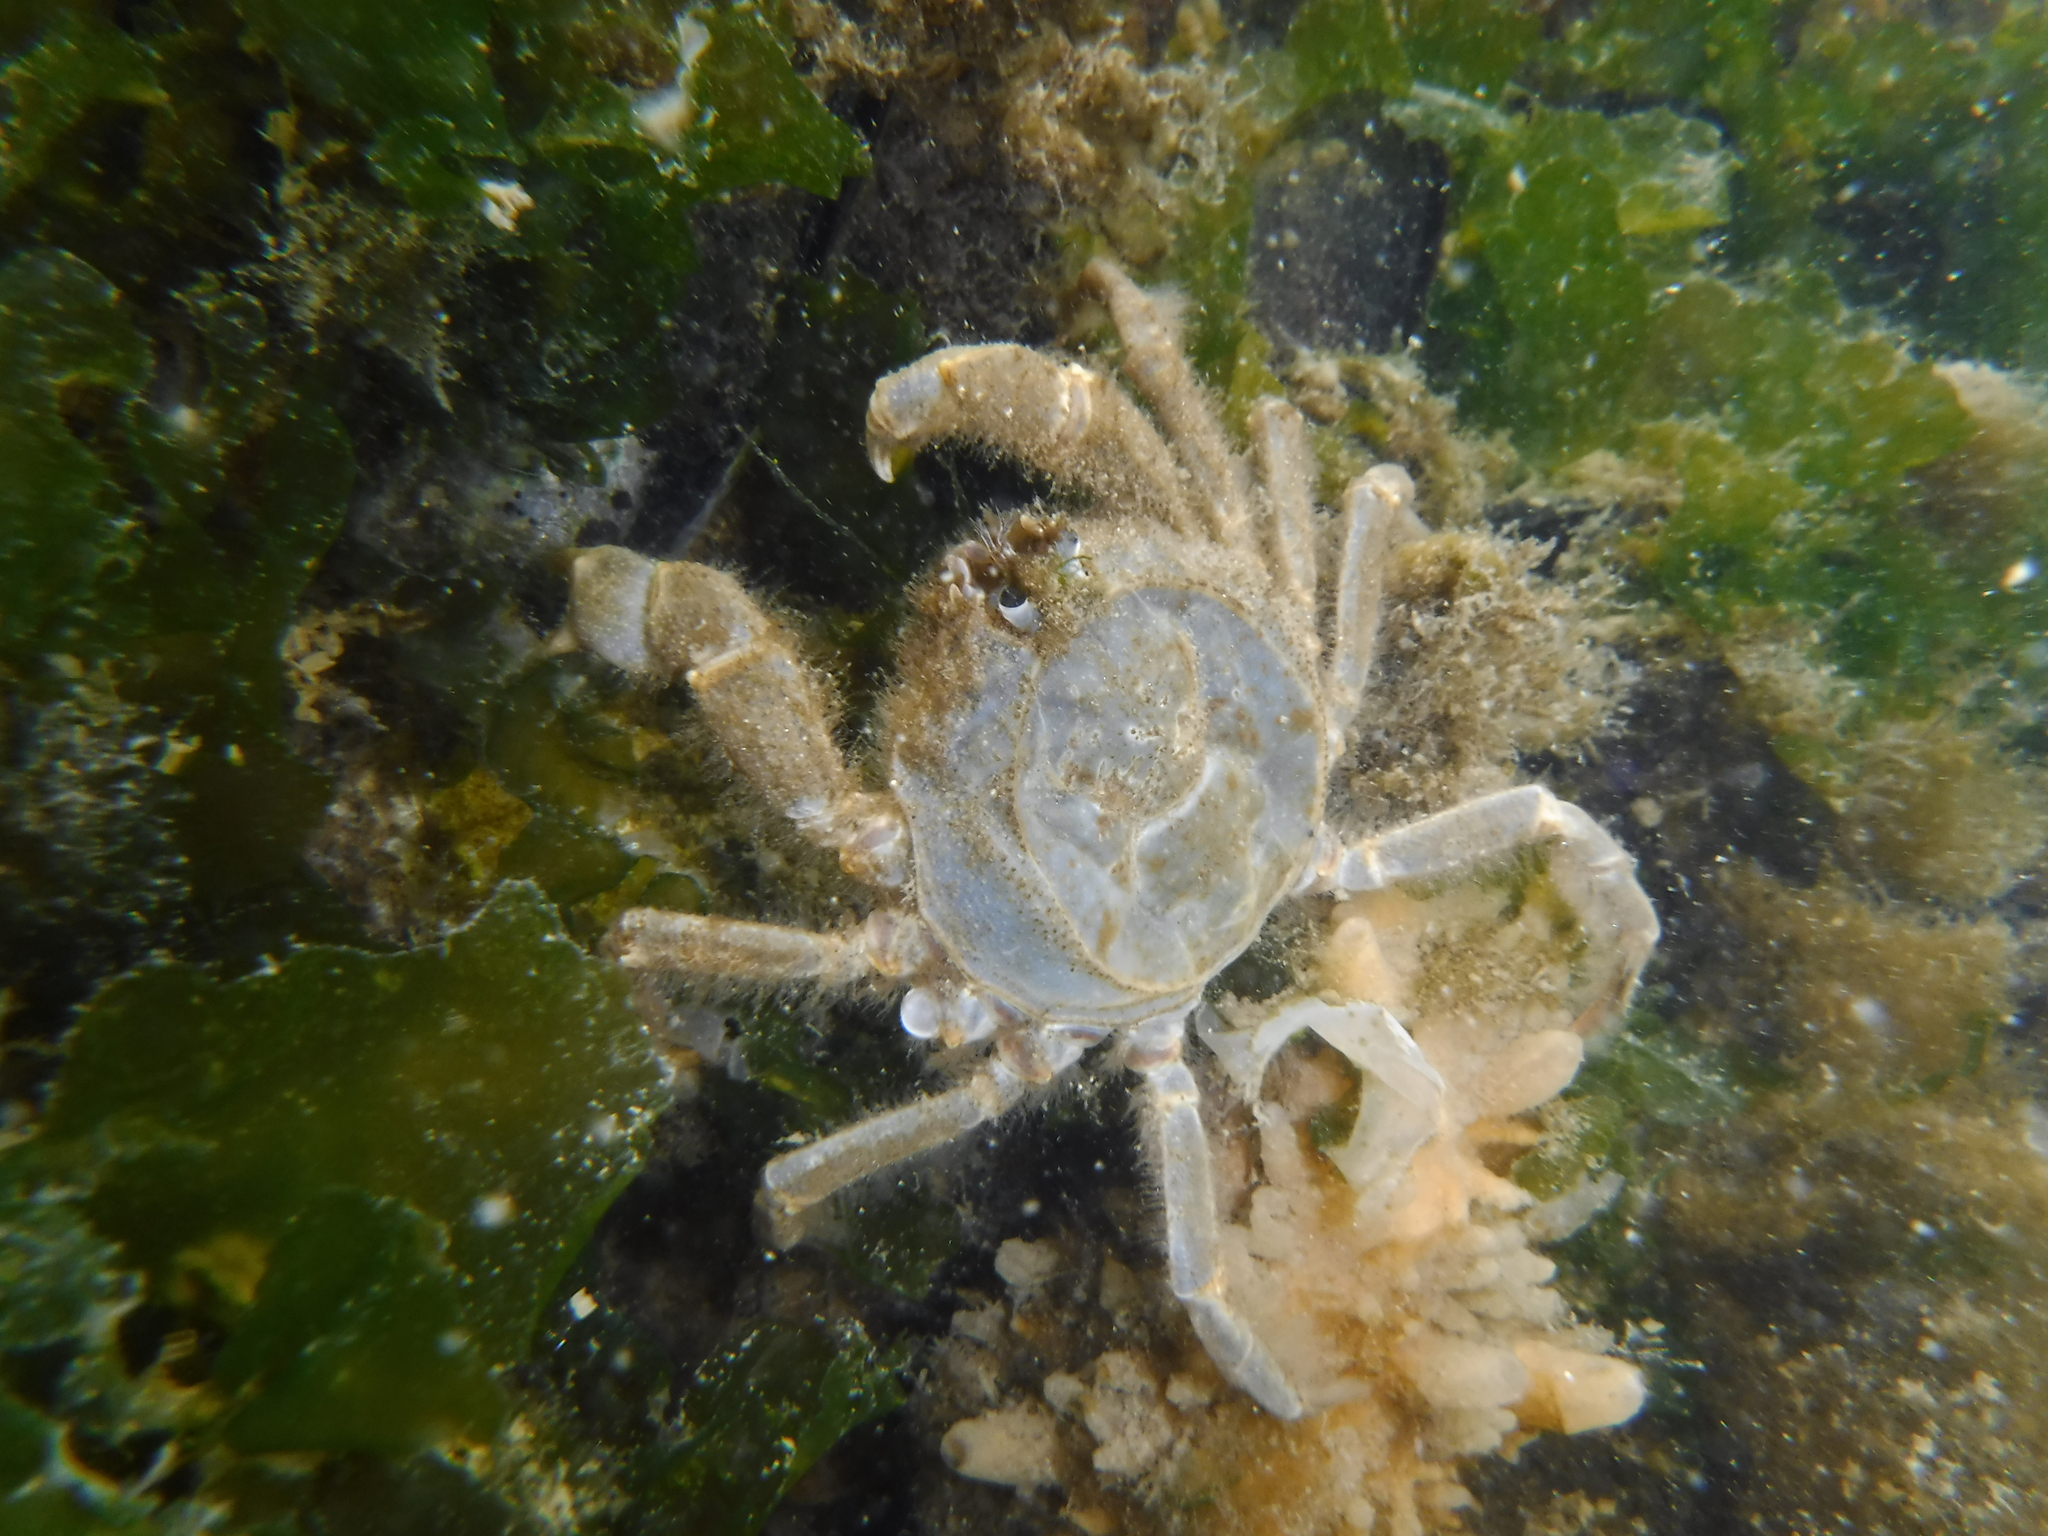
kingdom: Animalia
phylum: Arthropoda
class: Malacostraca
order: Decapoda
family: Hymenosomatidae
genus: Hymenosoma
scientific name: Hymenosoma orbiculare
